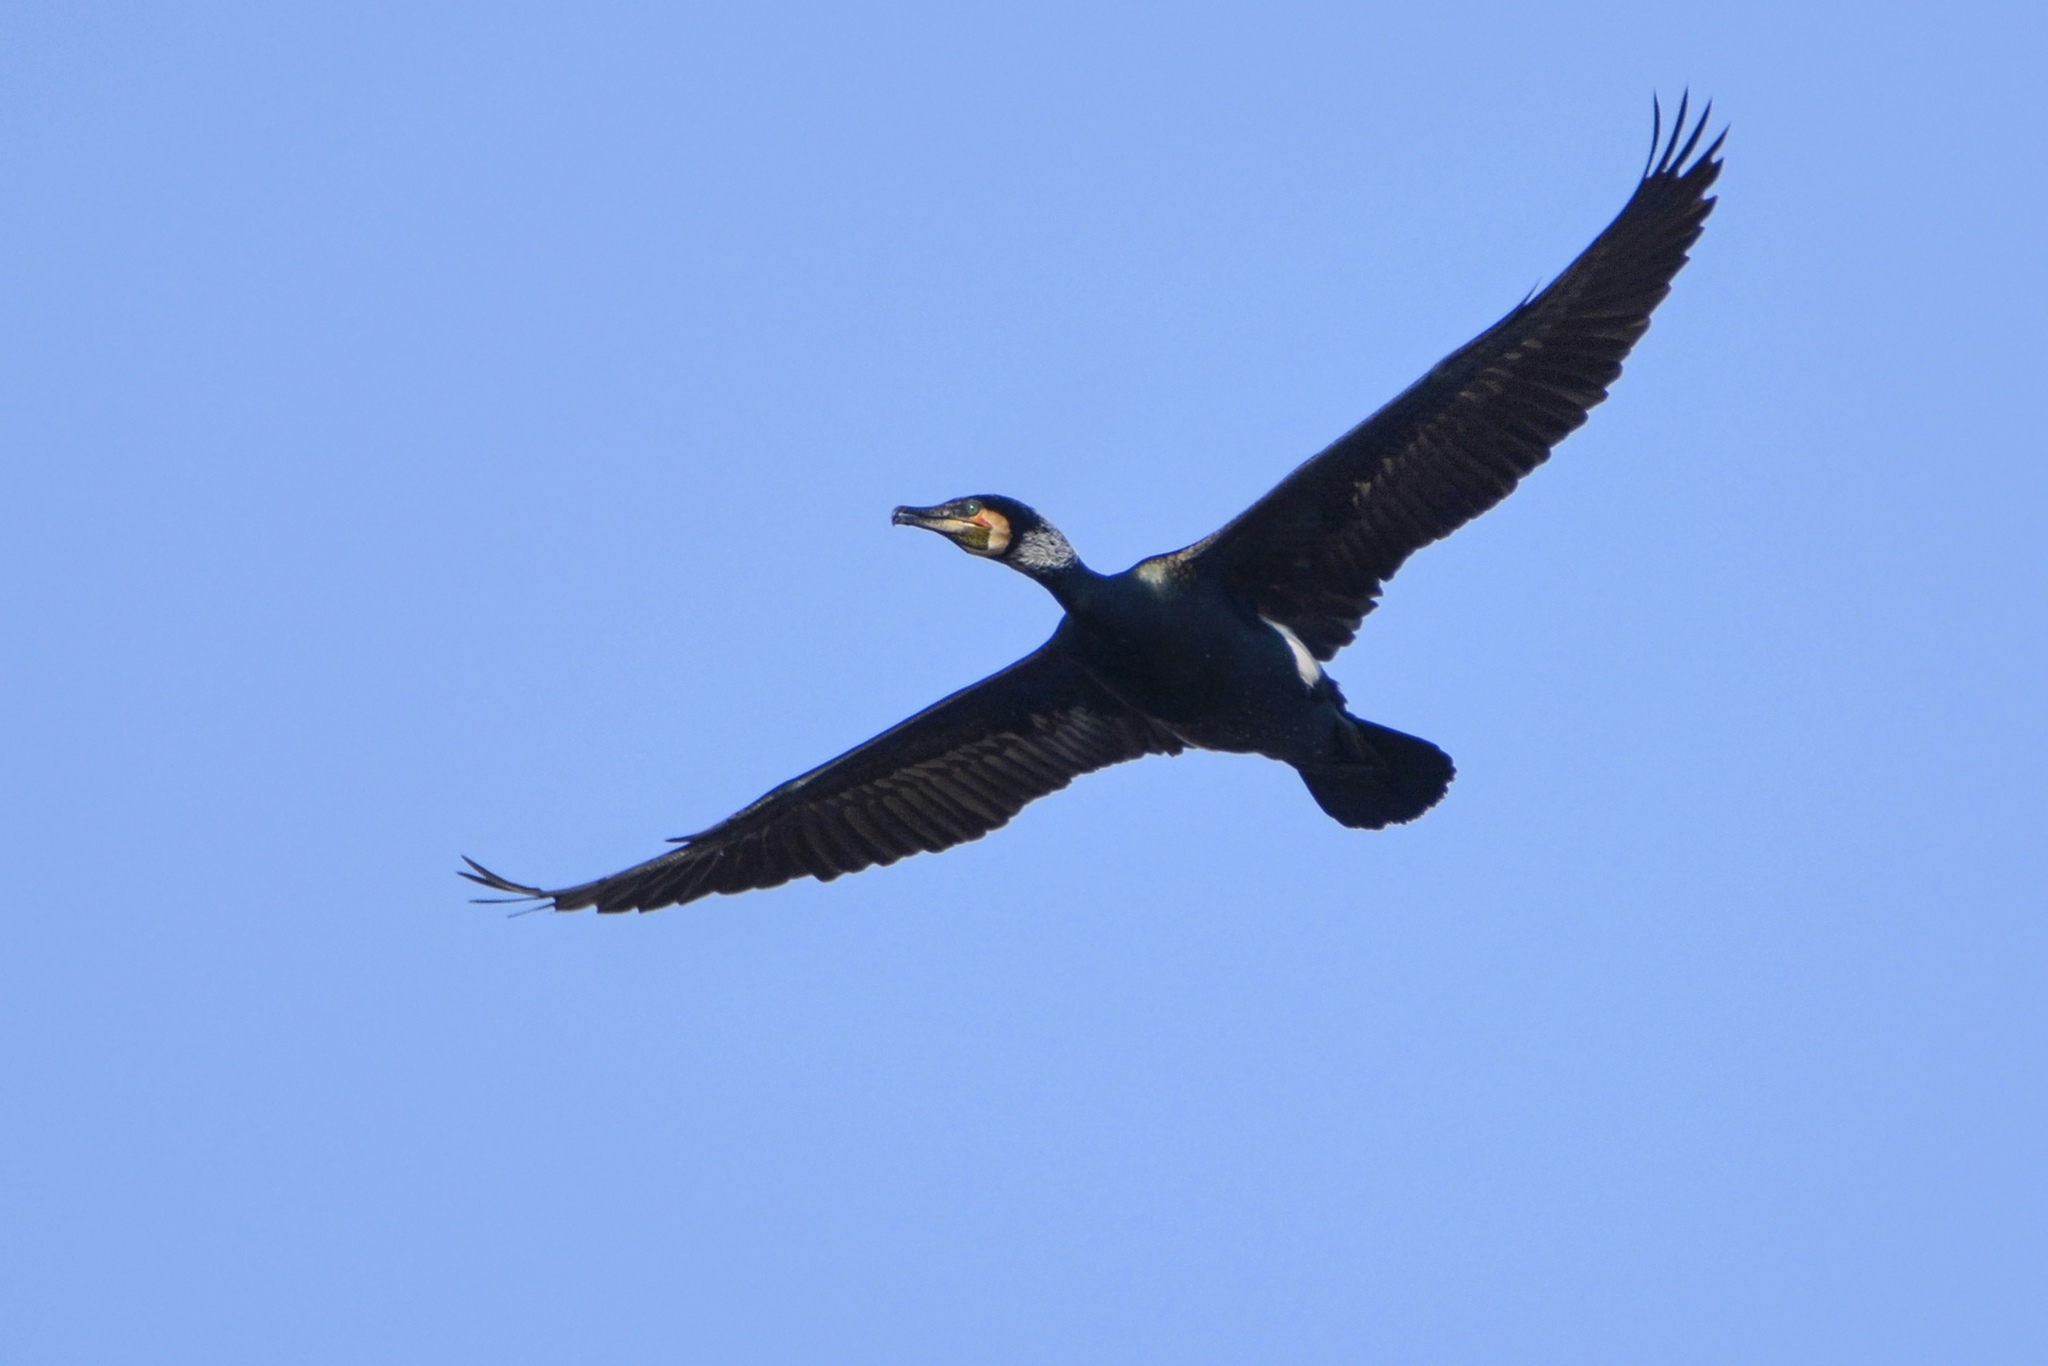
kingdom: Animalia
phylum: Chordata
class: Aves
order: Suliformes
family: Phalacrocoracidae
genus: Phalacrocorax
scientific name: Phalacrocorax carbo
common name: Great cormorant
